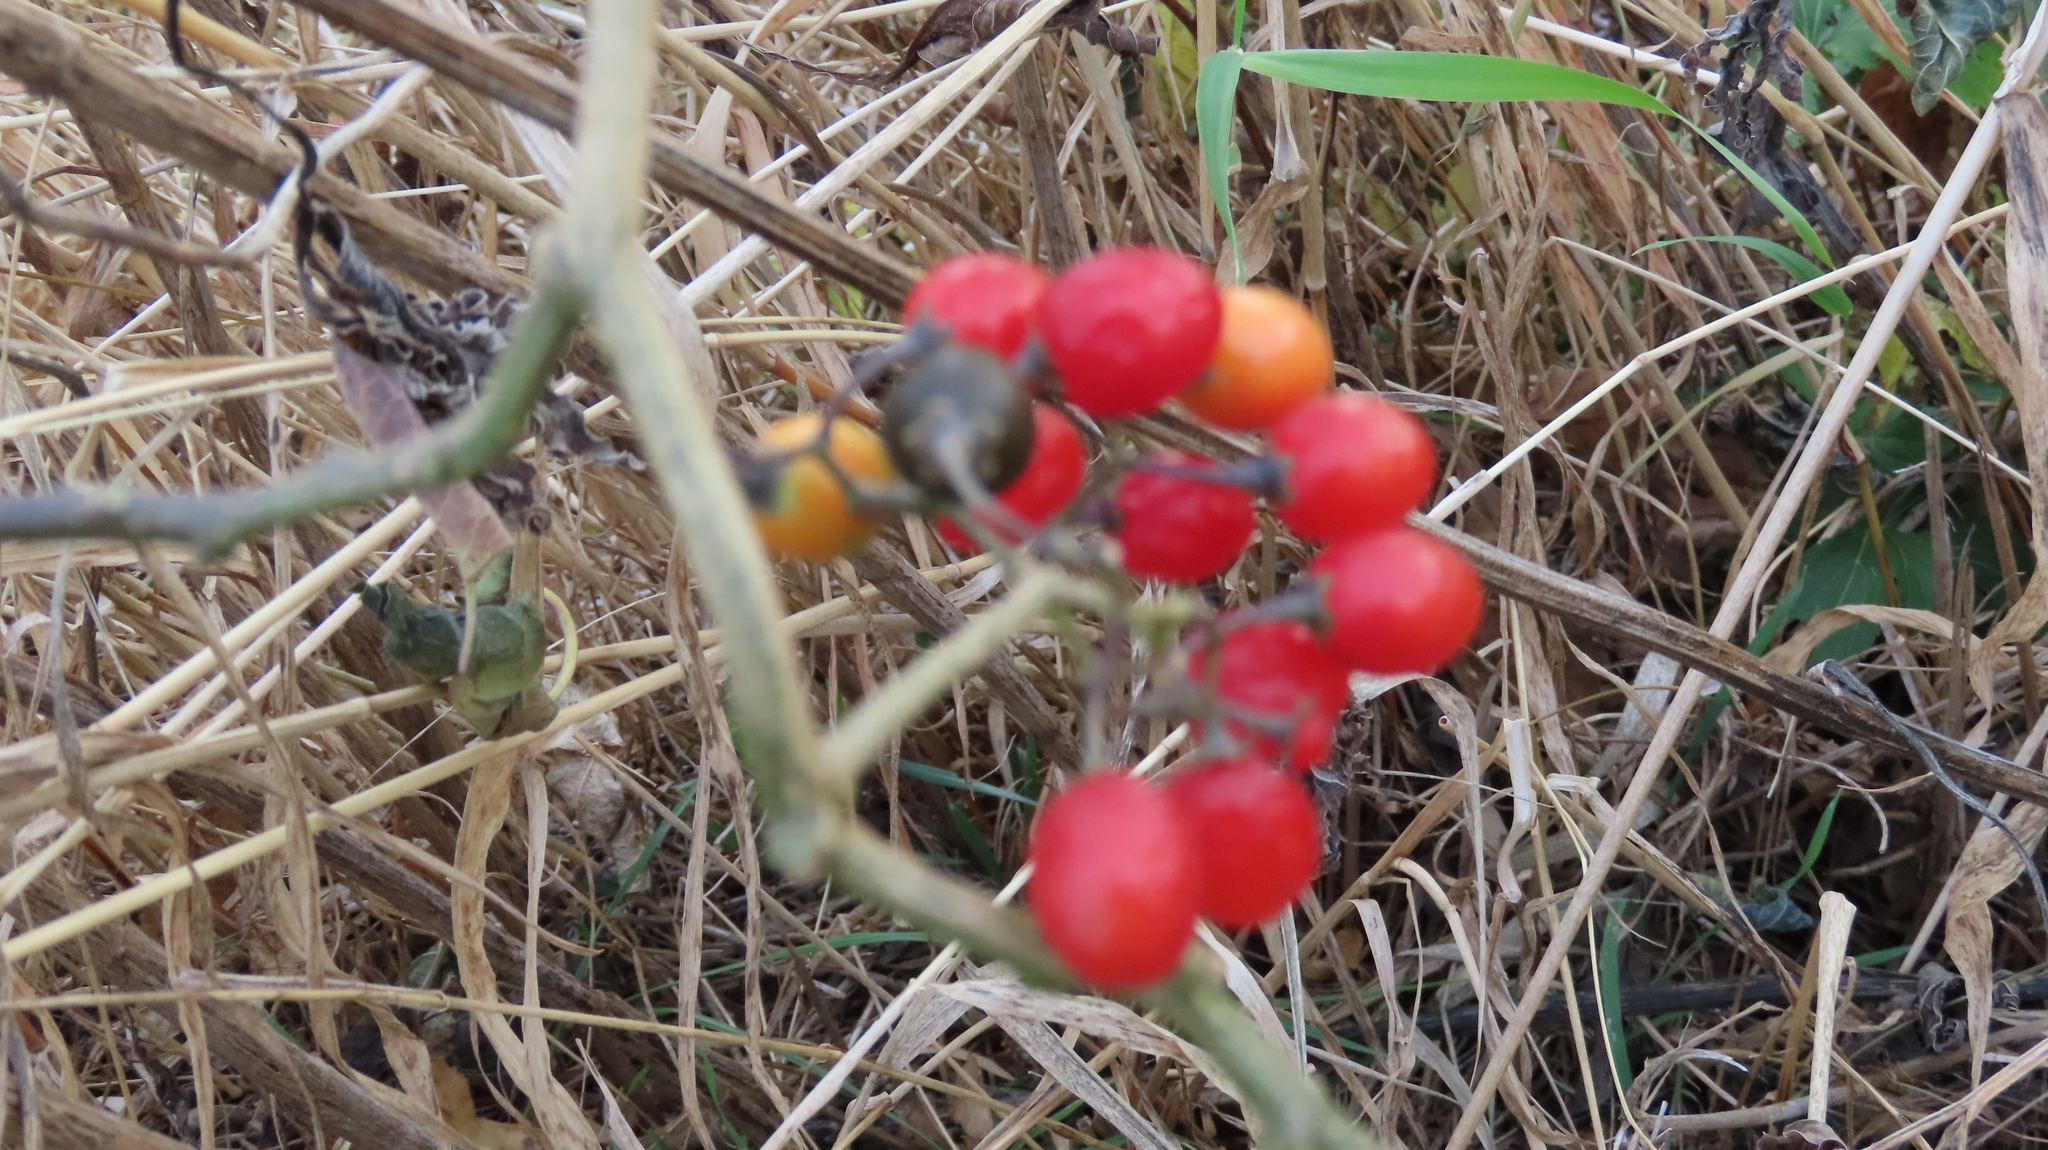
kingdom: Plantae
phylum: Tracheophyta
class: Magnoliopsida
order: Solanales
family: Solanaceae
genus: Solanum
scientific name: Solanum dulcamara
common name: Climbing nightshade
